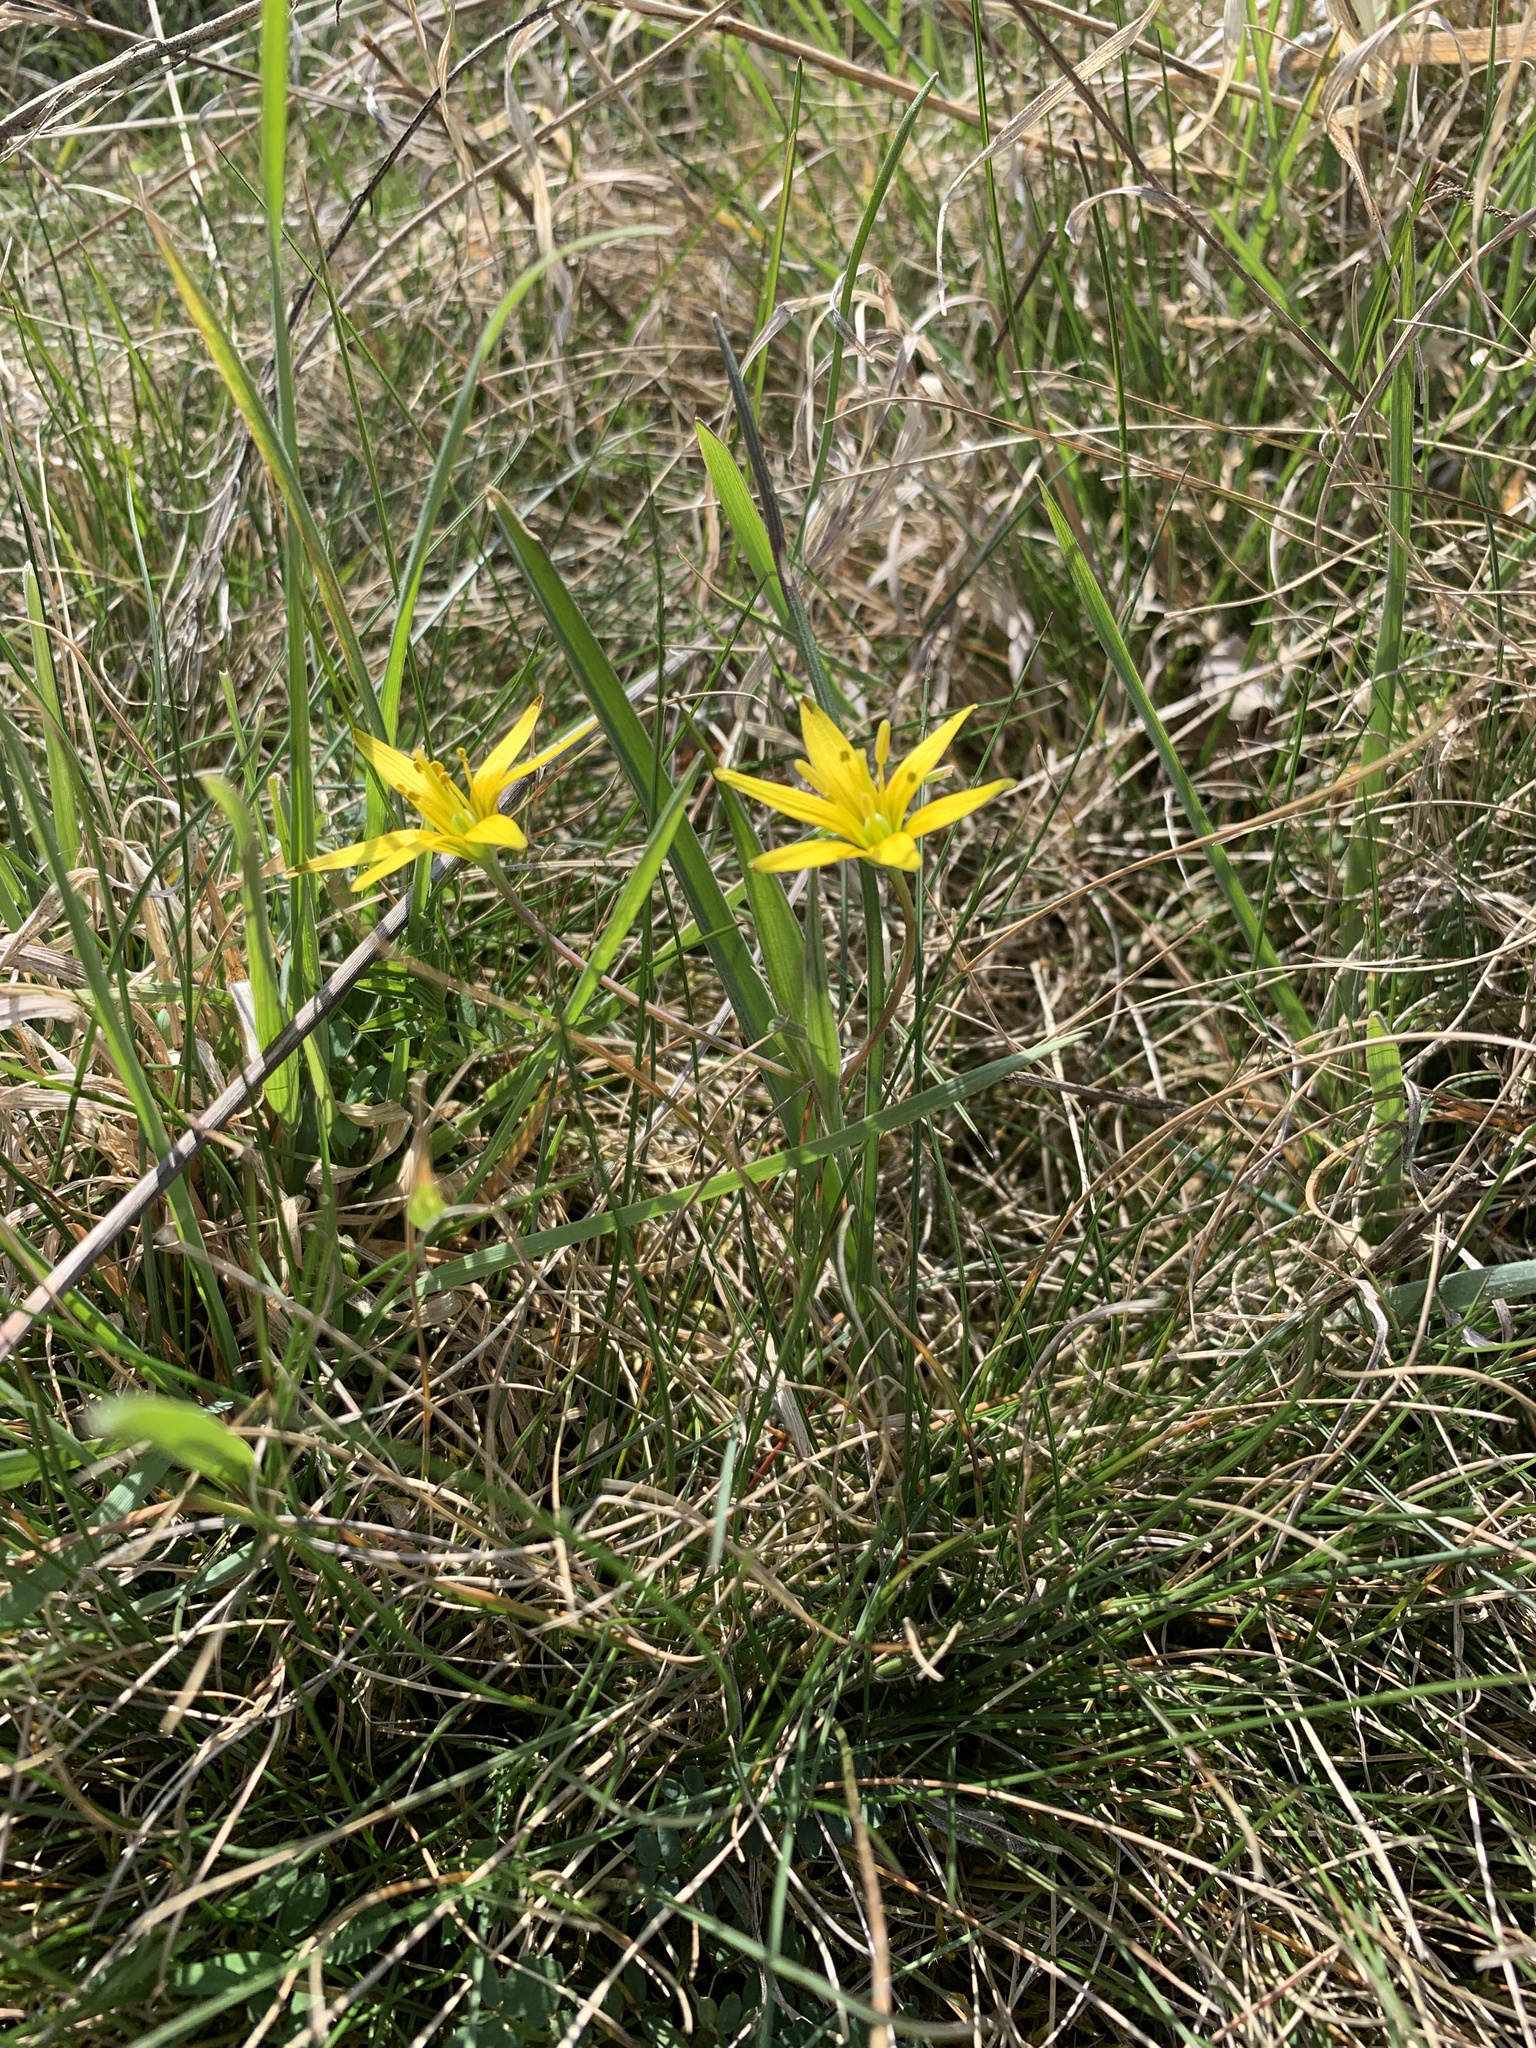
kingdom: Plantae
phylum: Tracheophyta
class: Liliopsida
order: Liliales
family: Liliaceae
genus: Gagea
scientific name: Gagea pratensis
